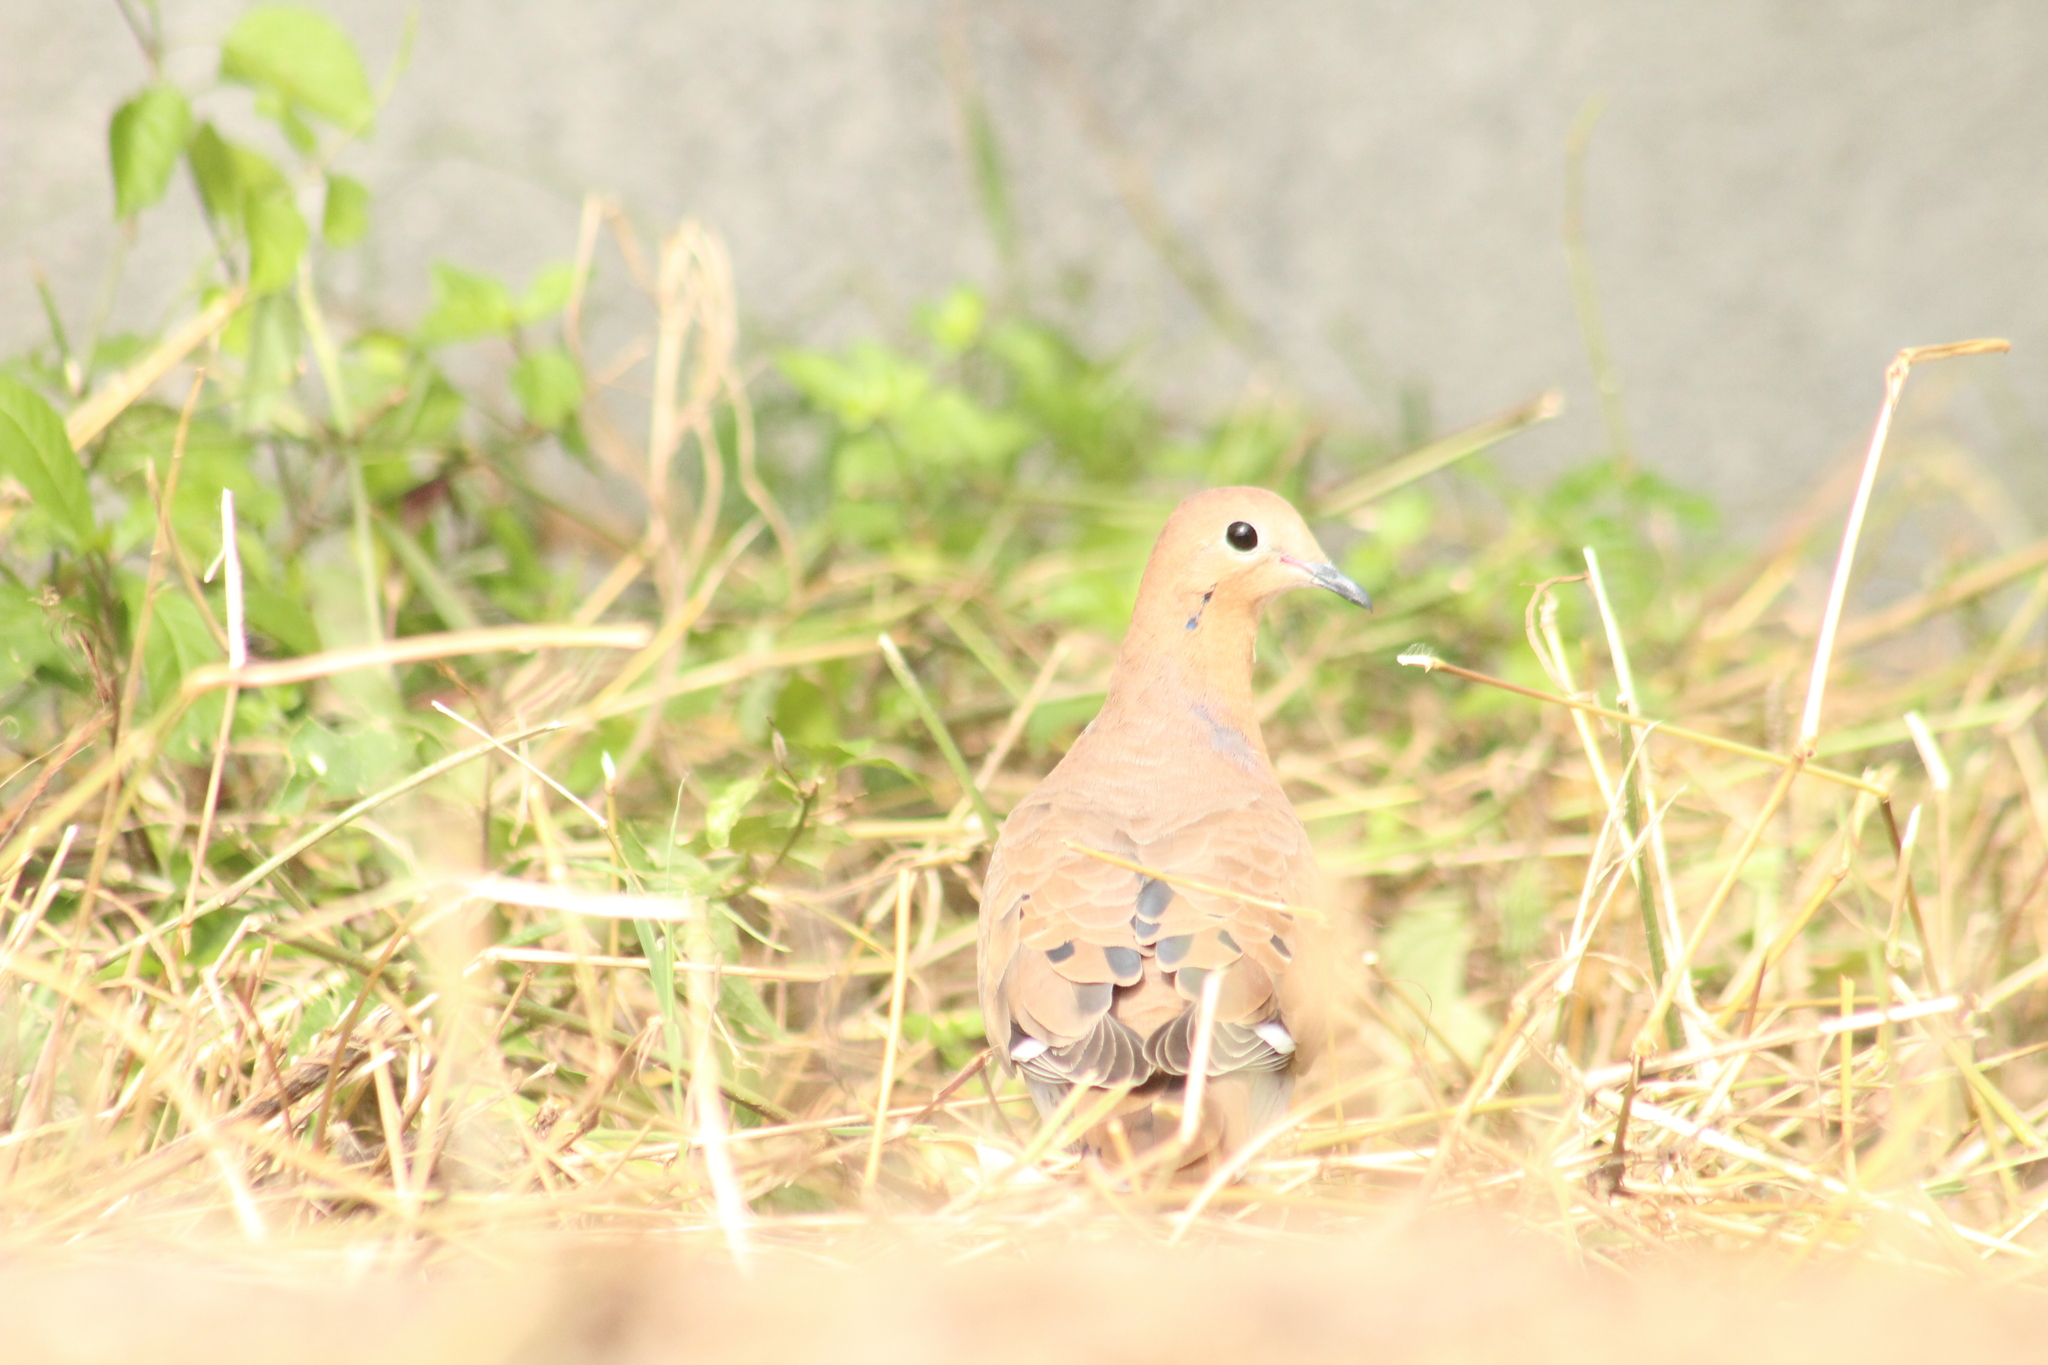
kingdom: Animalia
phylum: Chordata
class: Aves
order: Columbiformes
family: Columbidae
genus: Zenaida
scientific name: Zenaida aurita
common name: Zenaida dove
